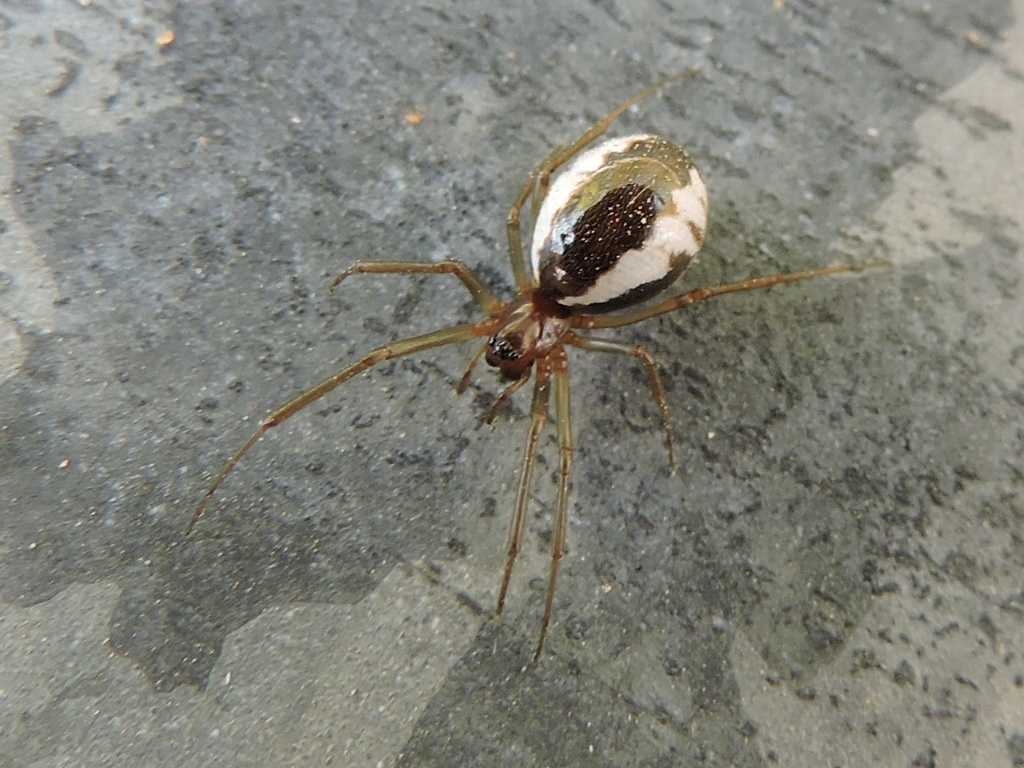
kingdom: Animalia
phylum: Arthropoda
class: Arachnida
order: Araneae
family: Linyphiidae
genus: Frontinella
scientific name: Frontinella pyramitela
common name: Bowl-and-doily spider
